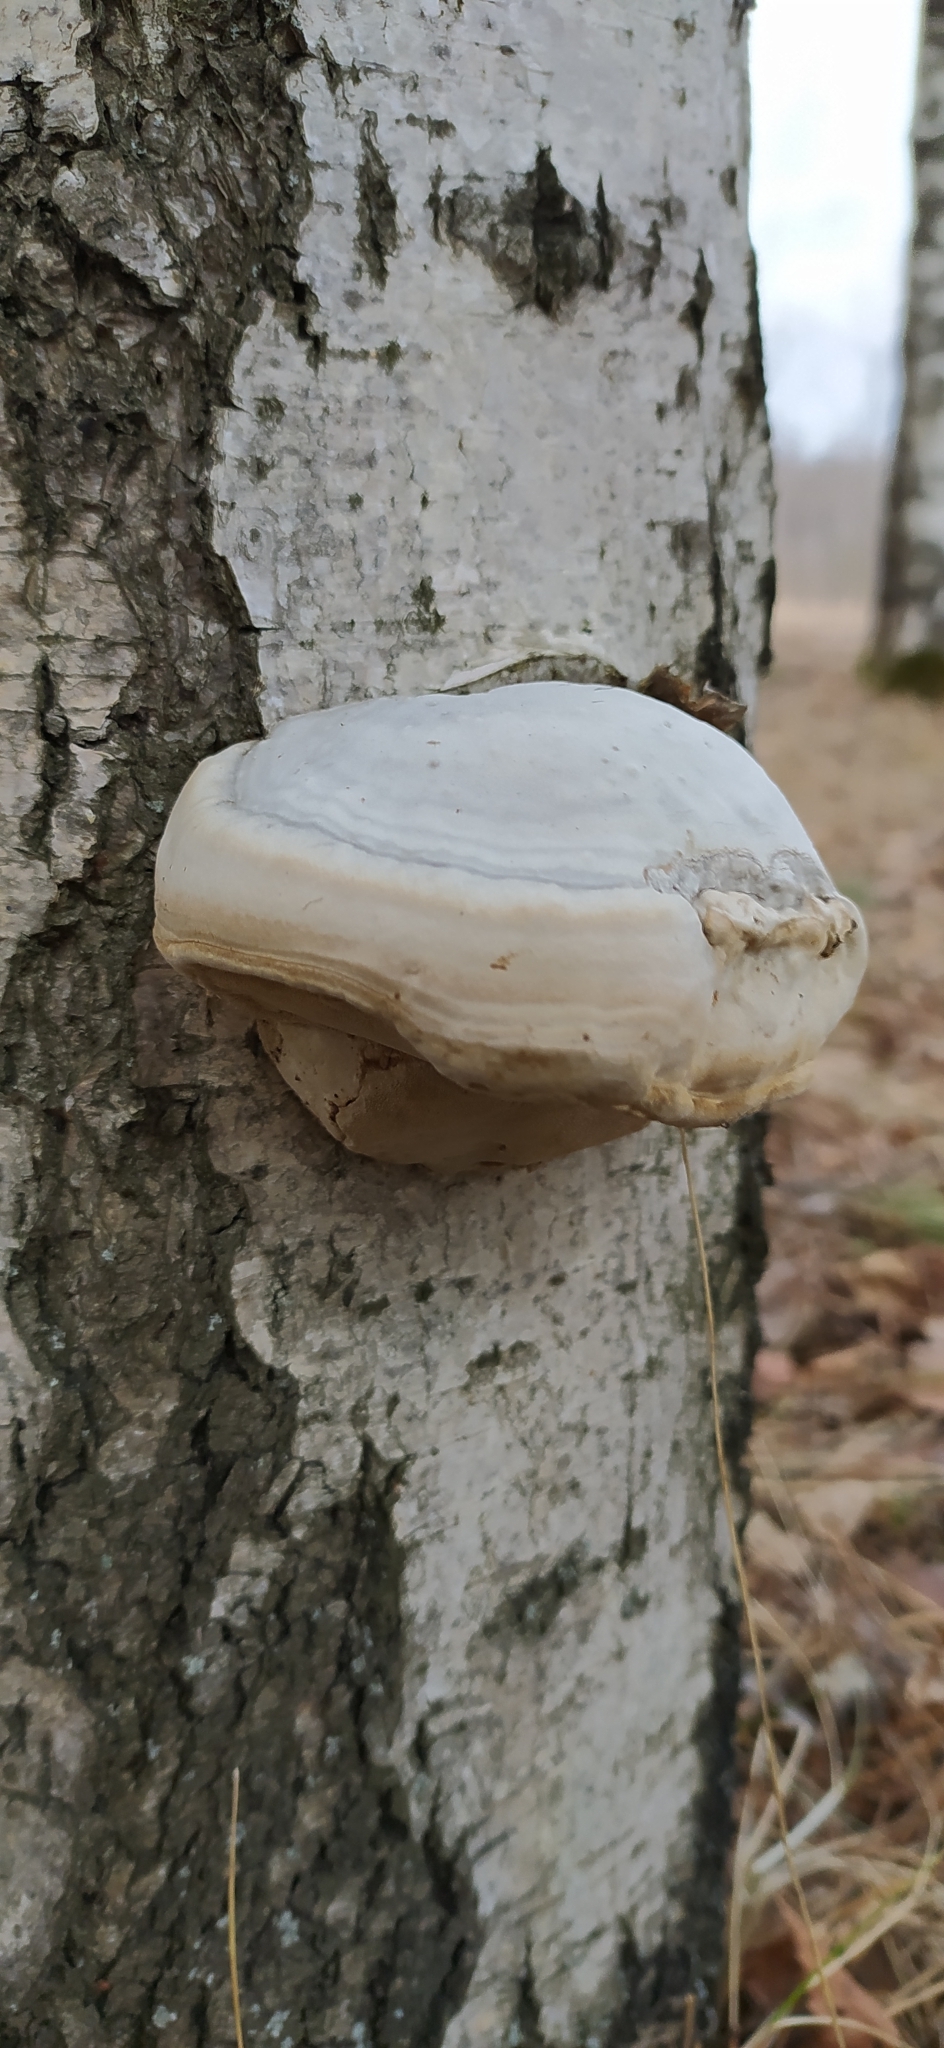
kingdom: Fungi
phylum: Basidiomycota
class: Agaricomycetes
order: Polyporales
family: Polyporaceae
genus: Fomes
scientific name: Fomes fomentarius
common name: Hoof fungus
